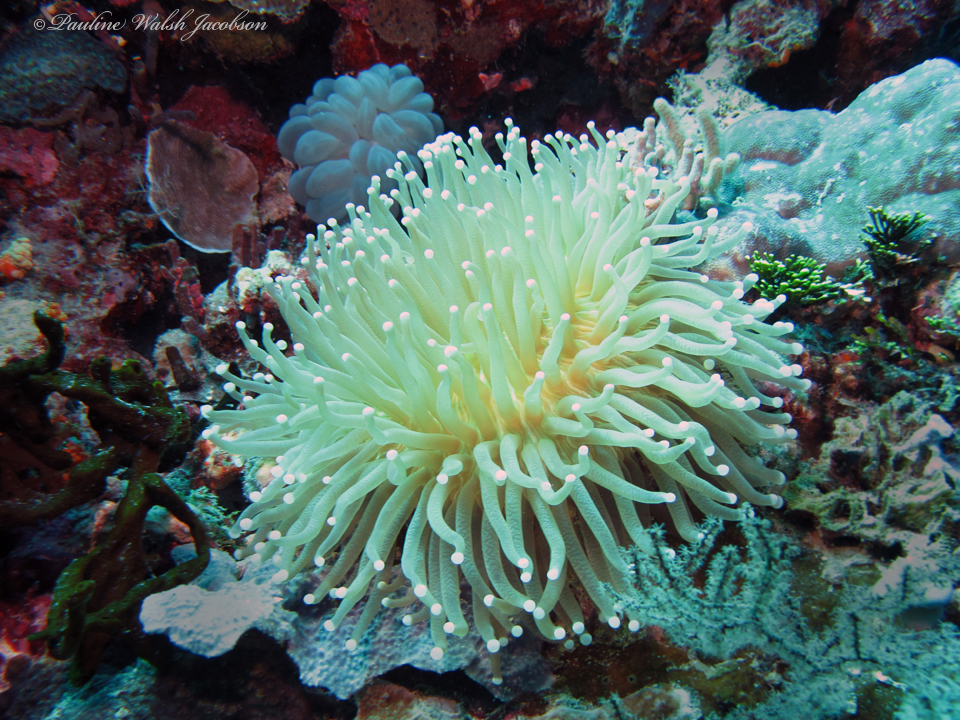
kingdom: Animalia
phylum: Cnidaria
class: Anthozoa
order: Scleractinia
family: Fungiidae
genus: Heliofungia
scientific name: Heliofungia actiniformis
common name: Plate coral
